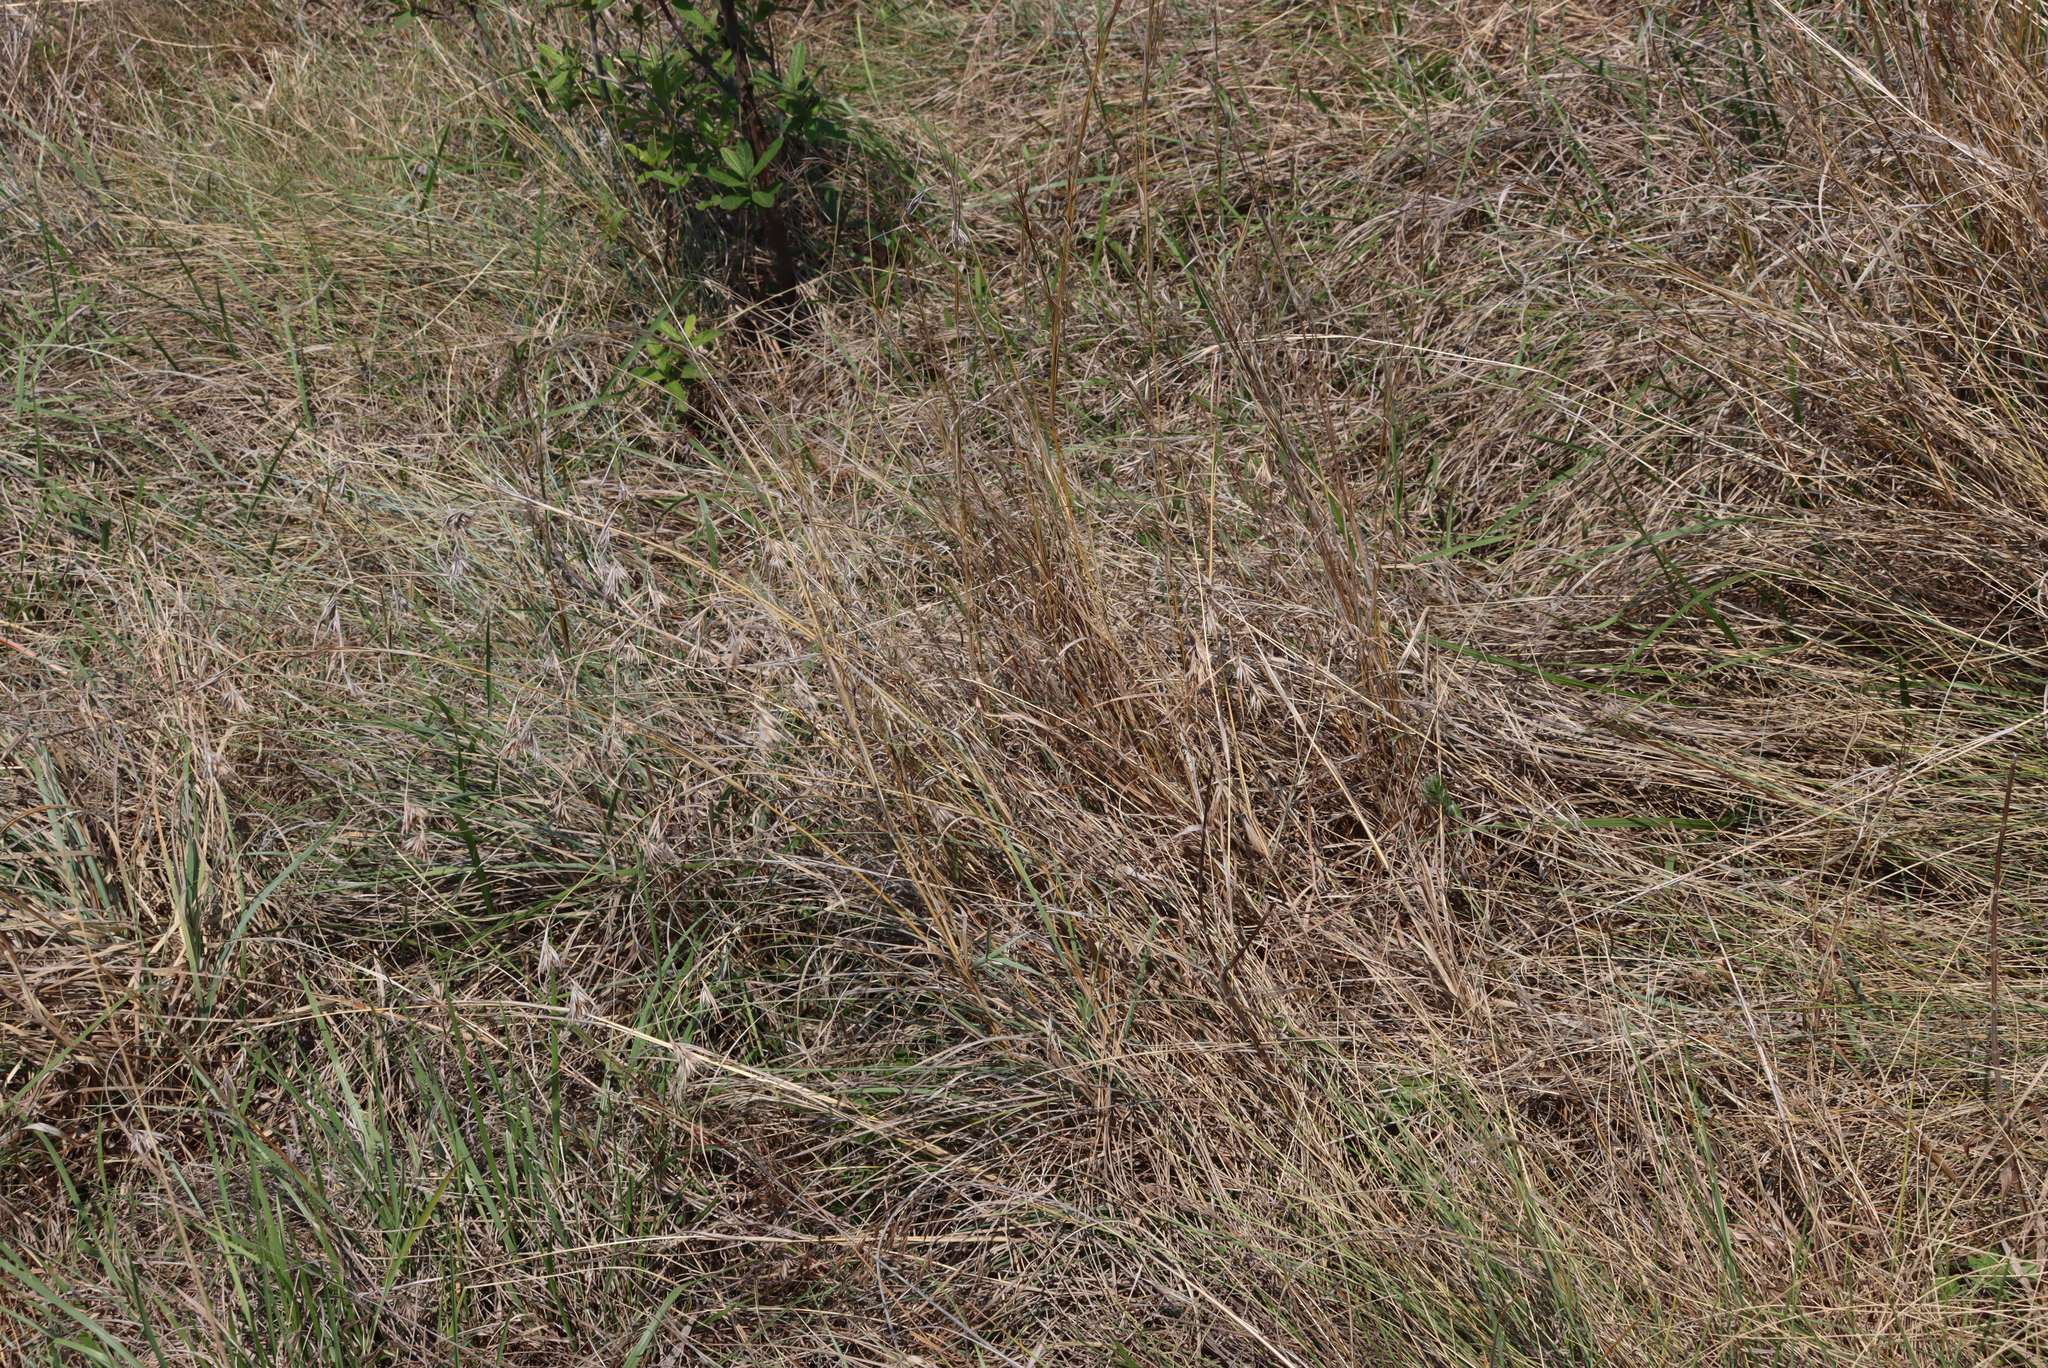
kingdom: Plantae
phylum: Tracheophyta
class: Liliopsida
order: Poales
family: Poaceae
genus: Themeda
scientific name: Themeda triandra
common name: Kangaroo grass
